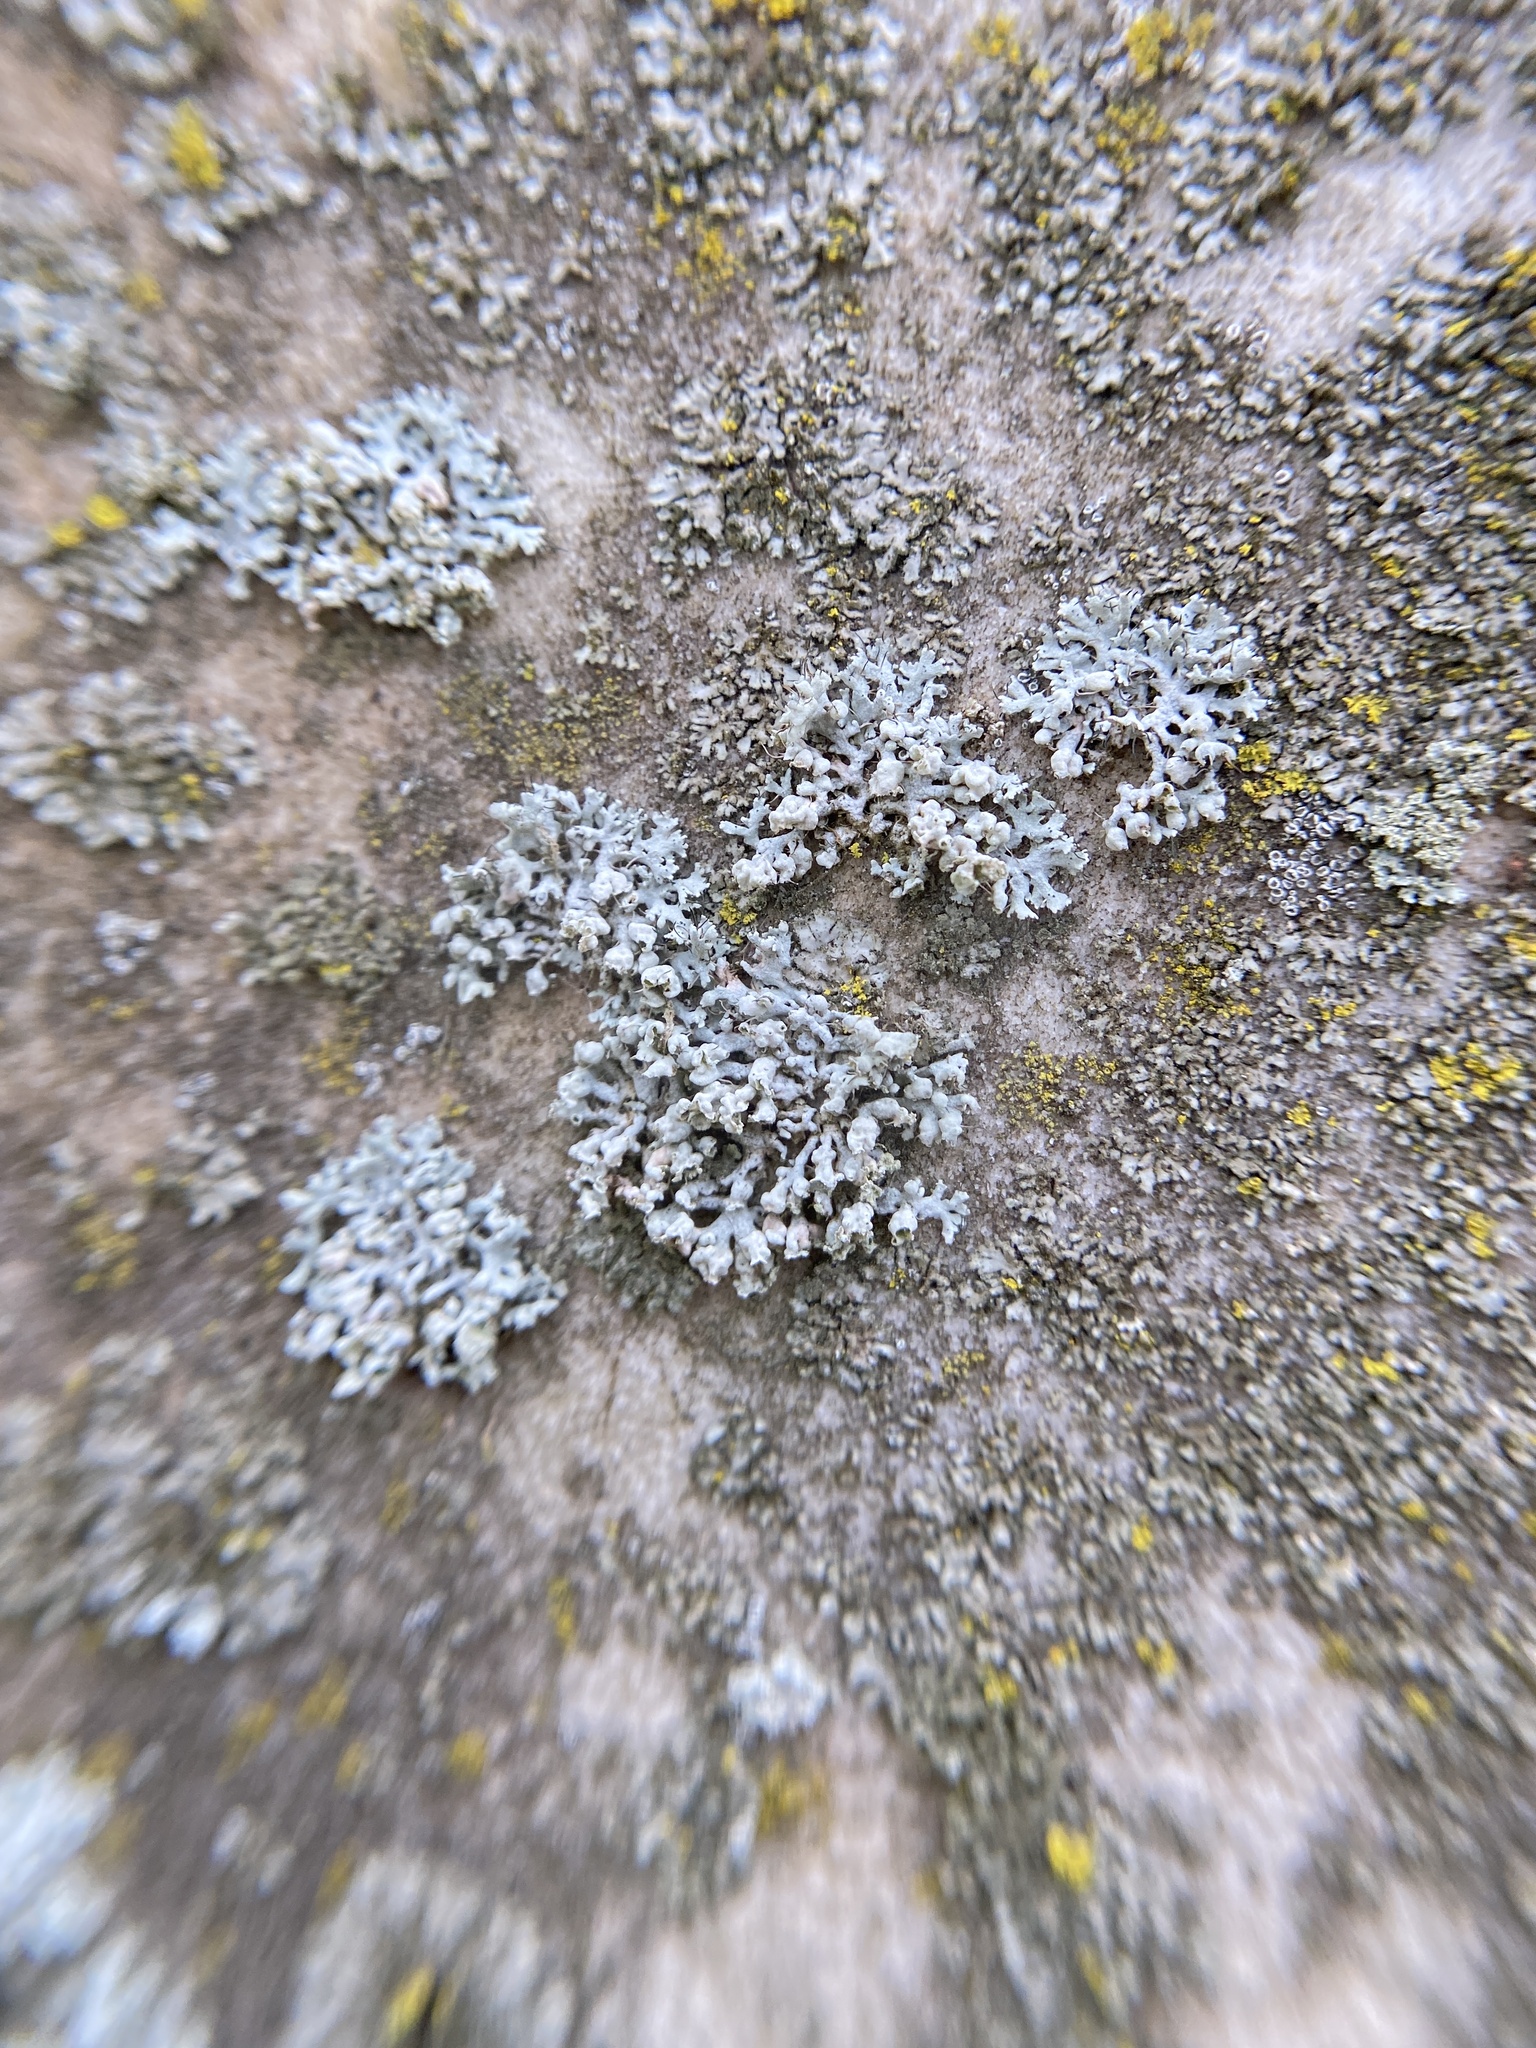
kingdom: Fungi
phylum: Ascomycota
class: Lecanoromycetes
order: Caliciales
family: Physciaceae
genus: Physcia
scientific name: Physcia adscendens
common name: Hooded rosette lichen
